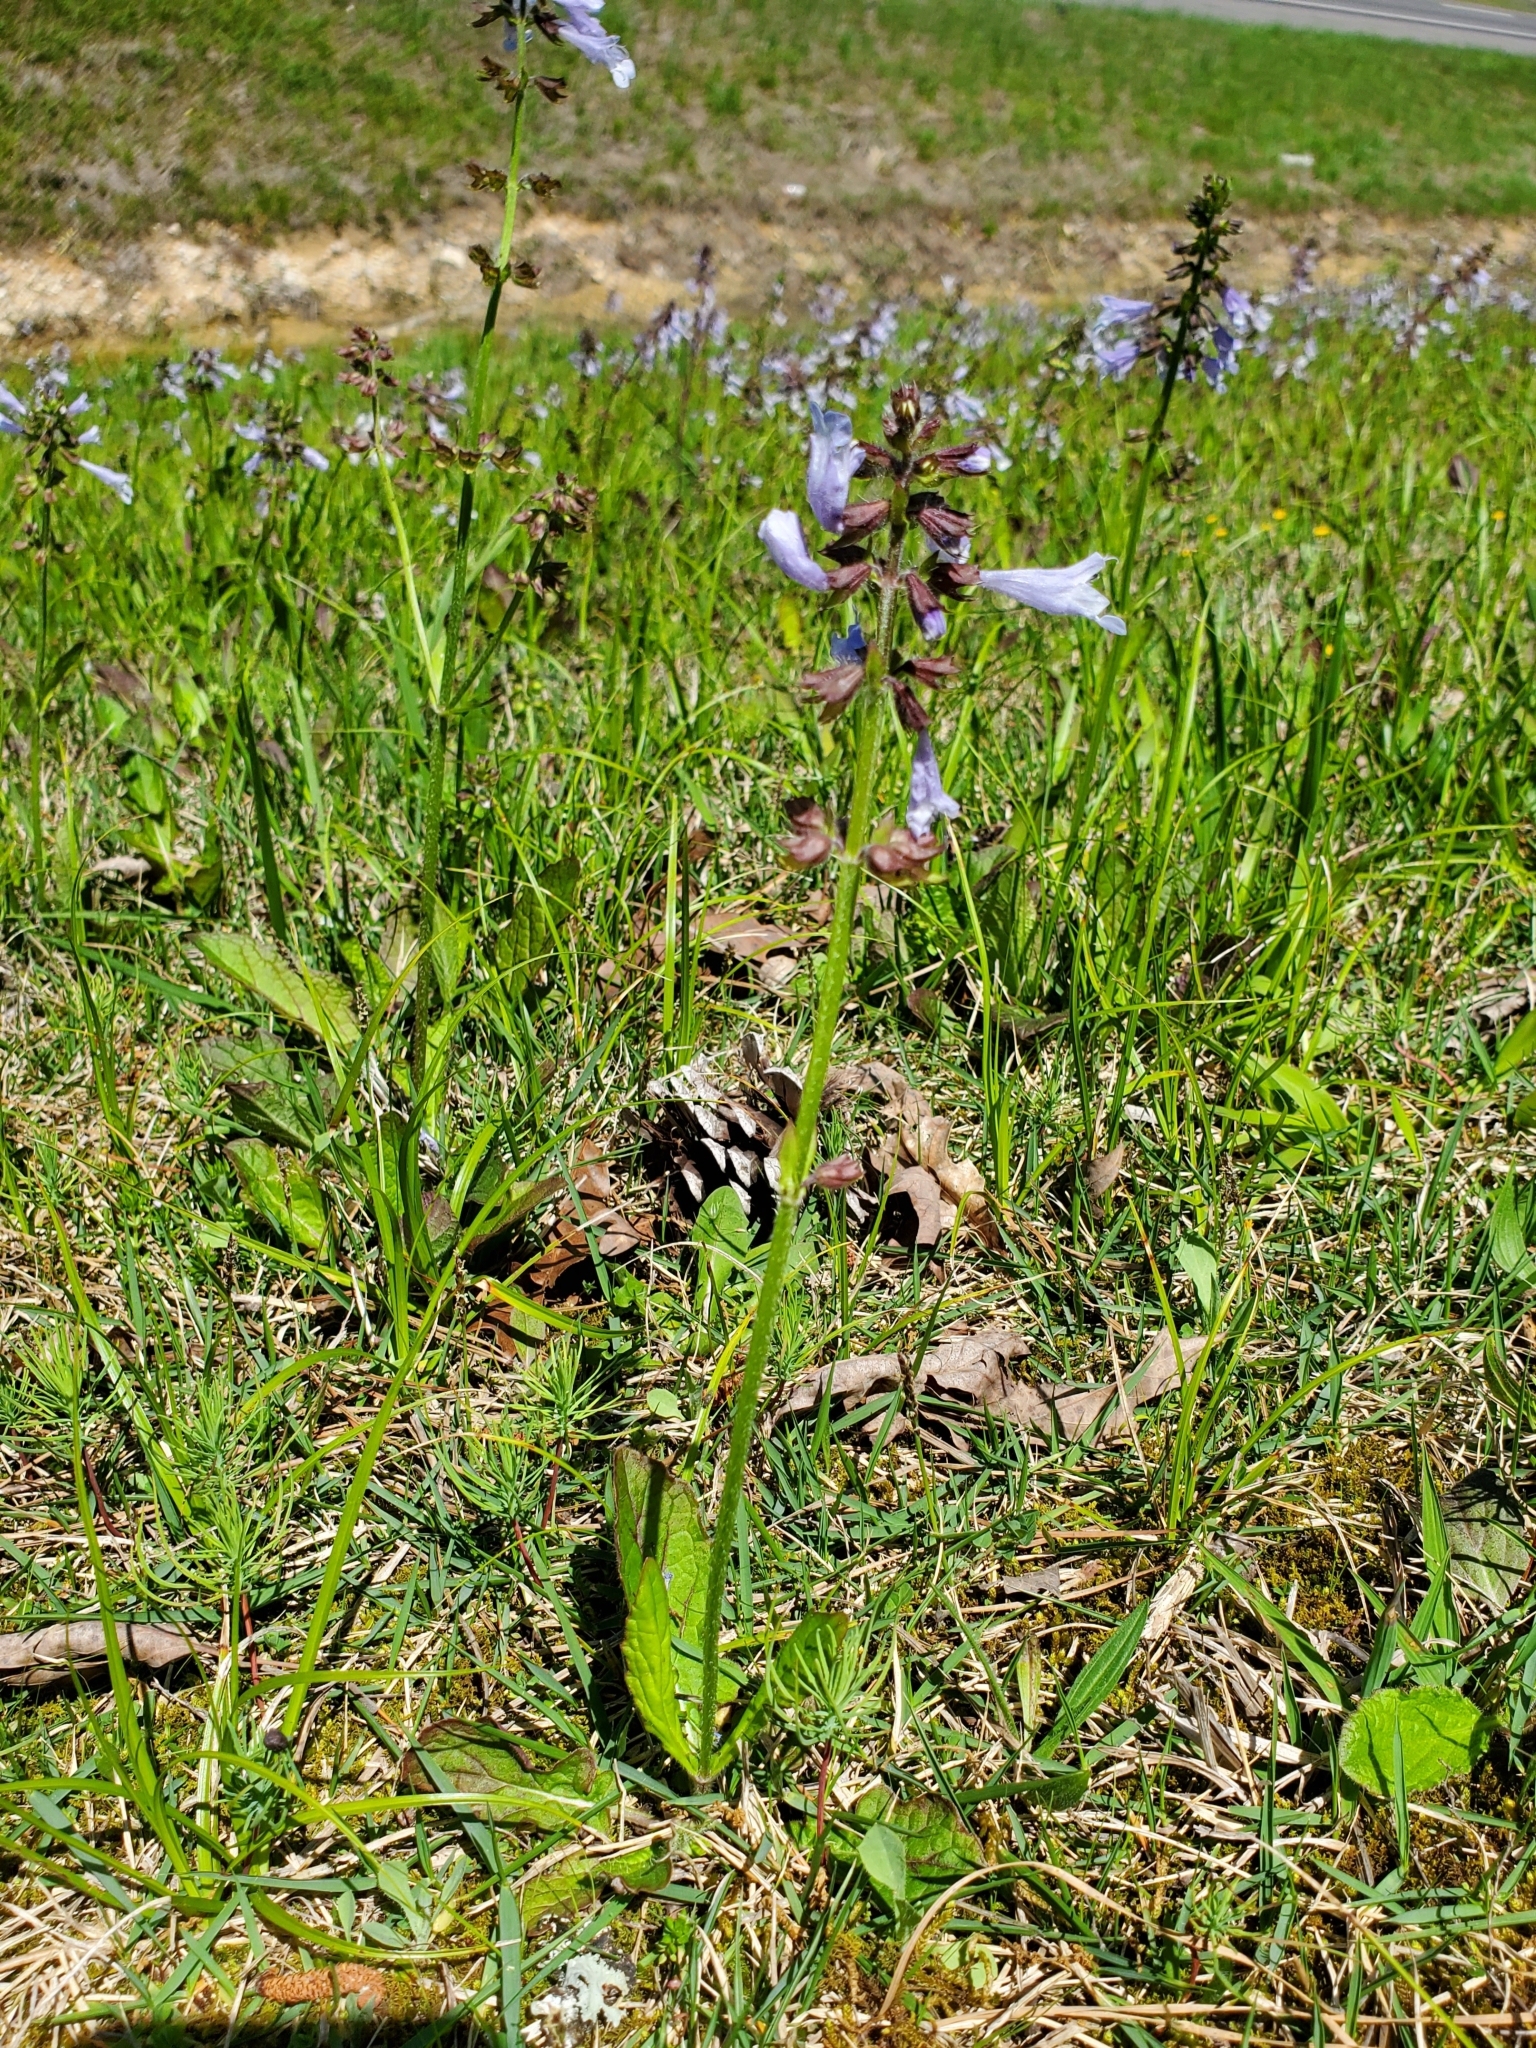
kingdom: Plantae
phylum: Tracheophyta
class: Magnoliopsida
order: Lamiales
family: Lamiaceae
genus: Salvia
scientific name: Salvia lyrata
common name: Cancerweed
